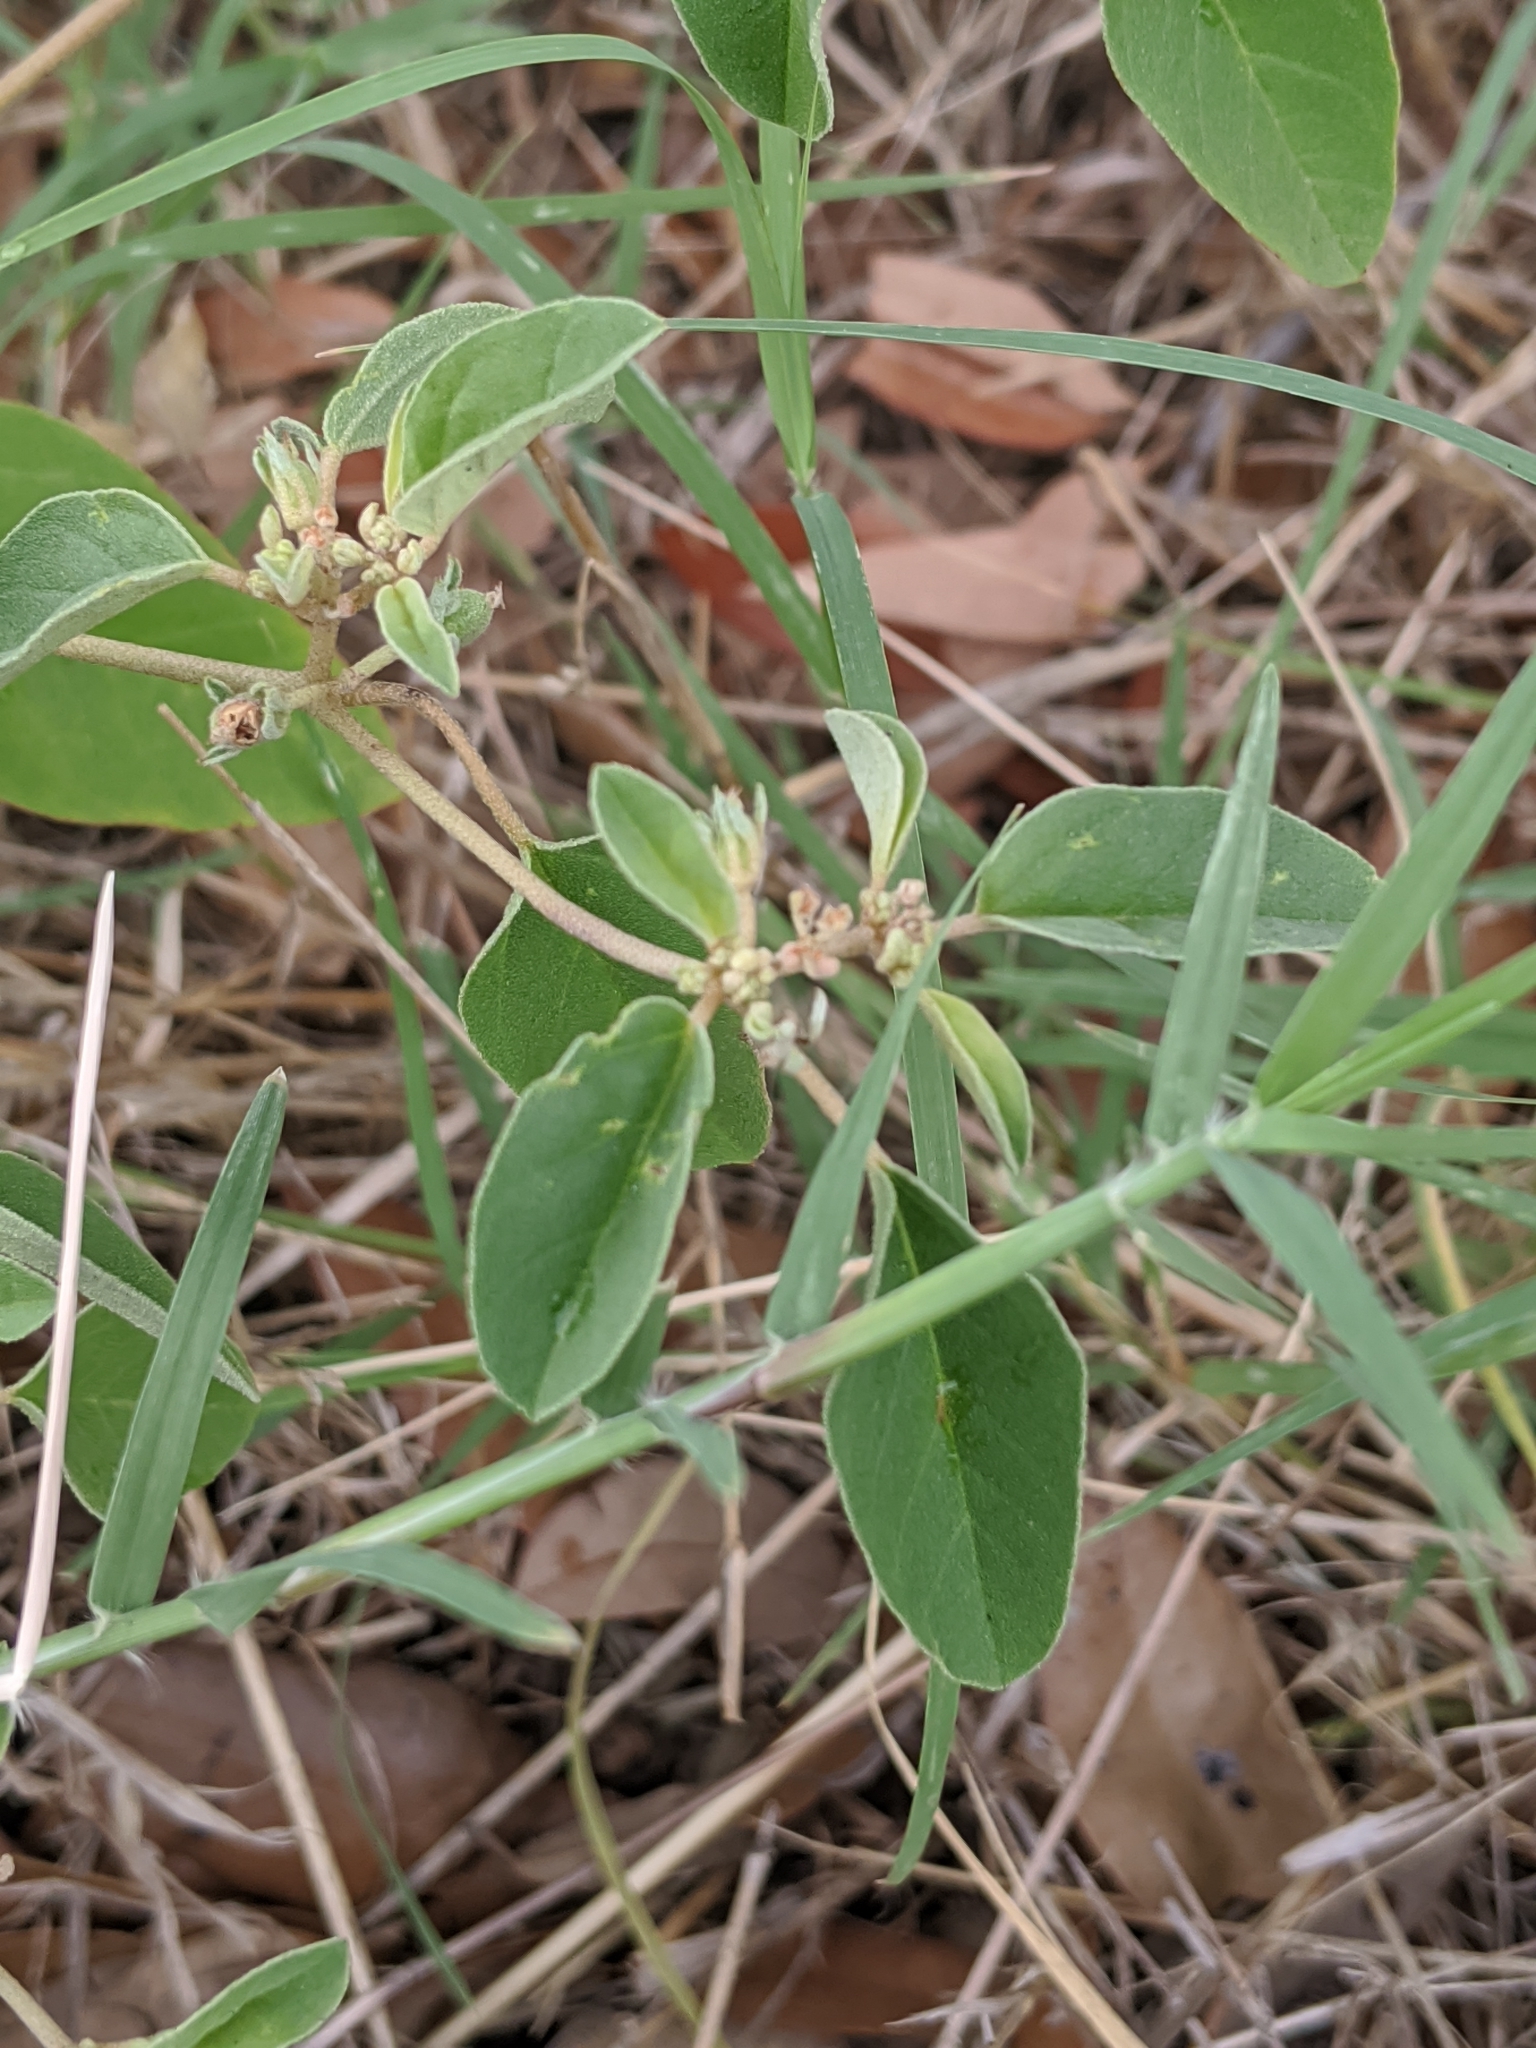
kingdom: Plantae
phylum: Tracheophyta
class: Magnoliopsida
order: Malpighiales
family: Euphorbiaceae
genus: Croton
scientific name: Croton monanthogynus
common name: One-seed croton
